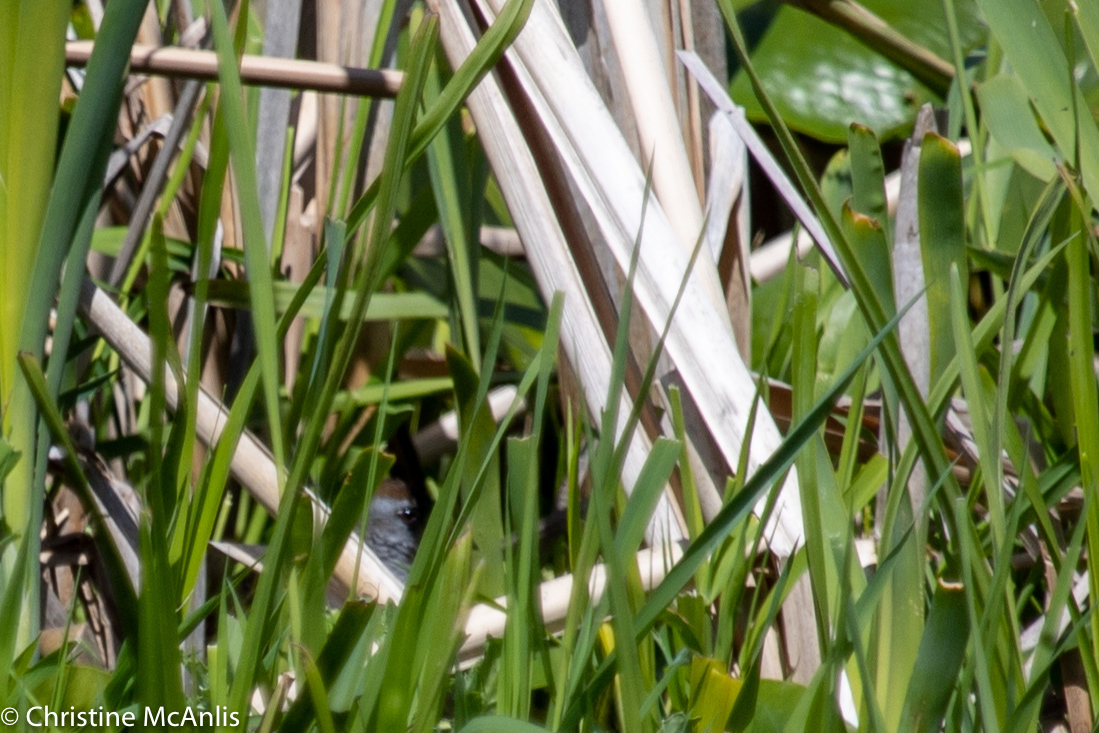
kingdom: Animalia
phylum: Chordata
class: Aves
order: Gruiformes
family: Rallidae
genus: Porzana
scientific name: Porzana carolina
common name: Sora
